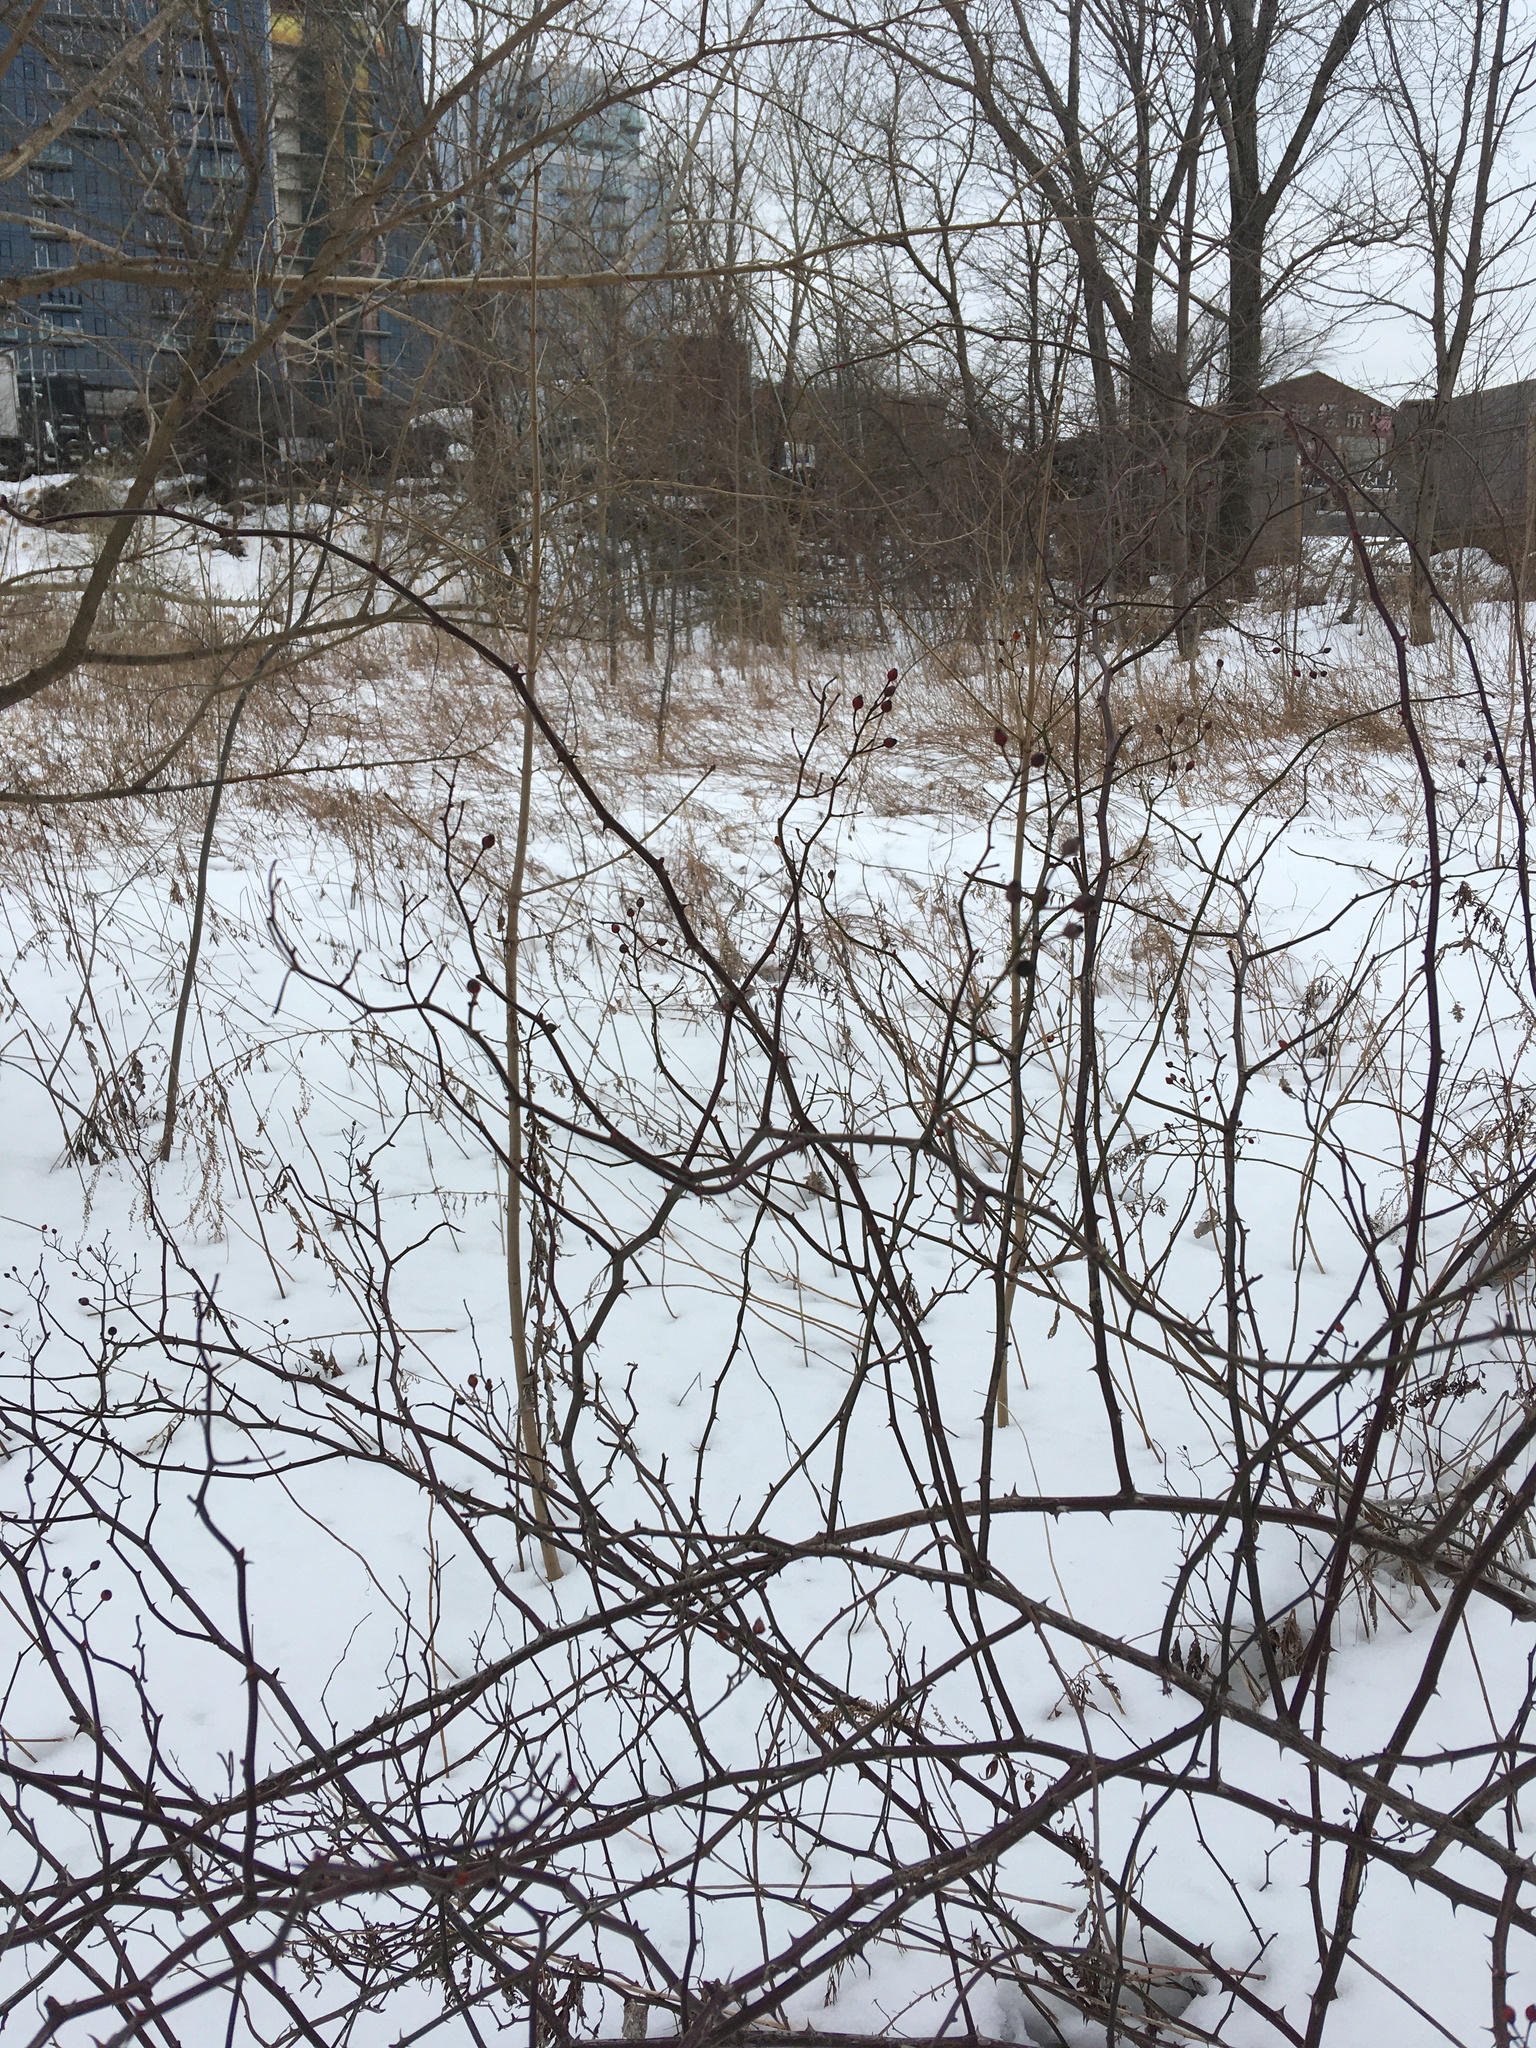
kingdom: Plantae
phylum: Tracheophyta
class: Magnoliopsida
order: Rosales
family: Rosaceae
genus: Rosa
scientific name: Rosa multiflora
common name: Multiflora rose
